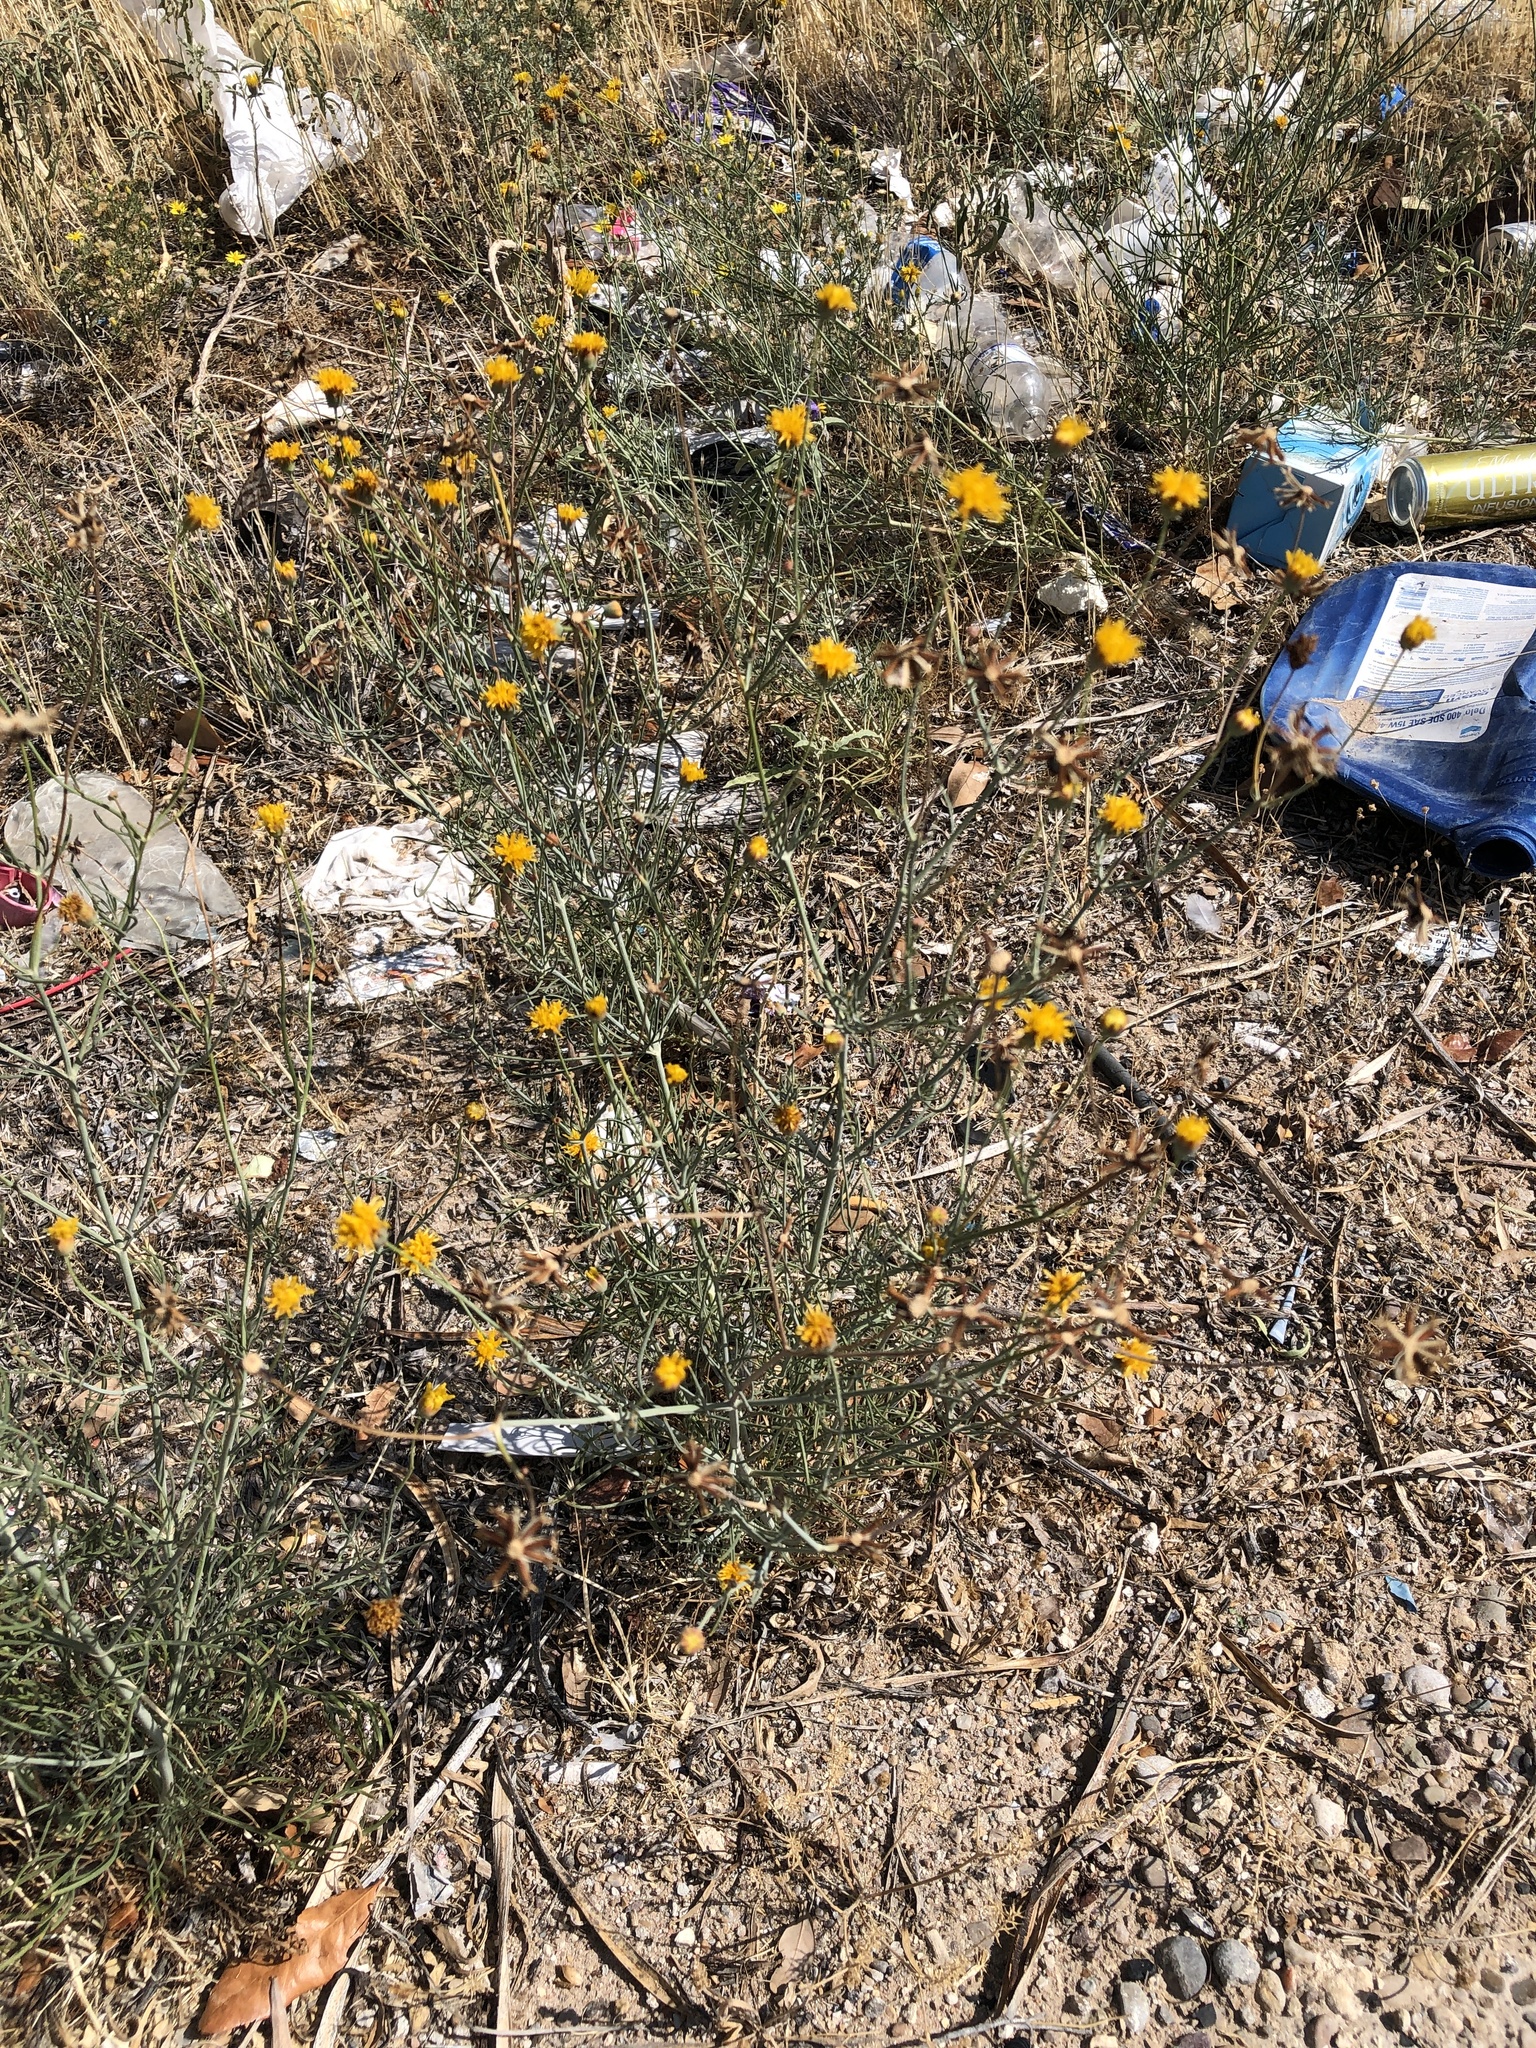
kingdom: Plantae
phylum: Tracheophyta
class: Magnoliopsida
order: Asterales
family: Asteraceae
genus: Thelesperma
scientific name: Thelesperma megapotamicum
